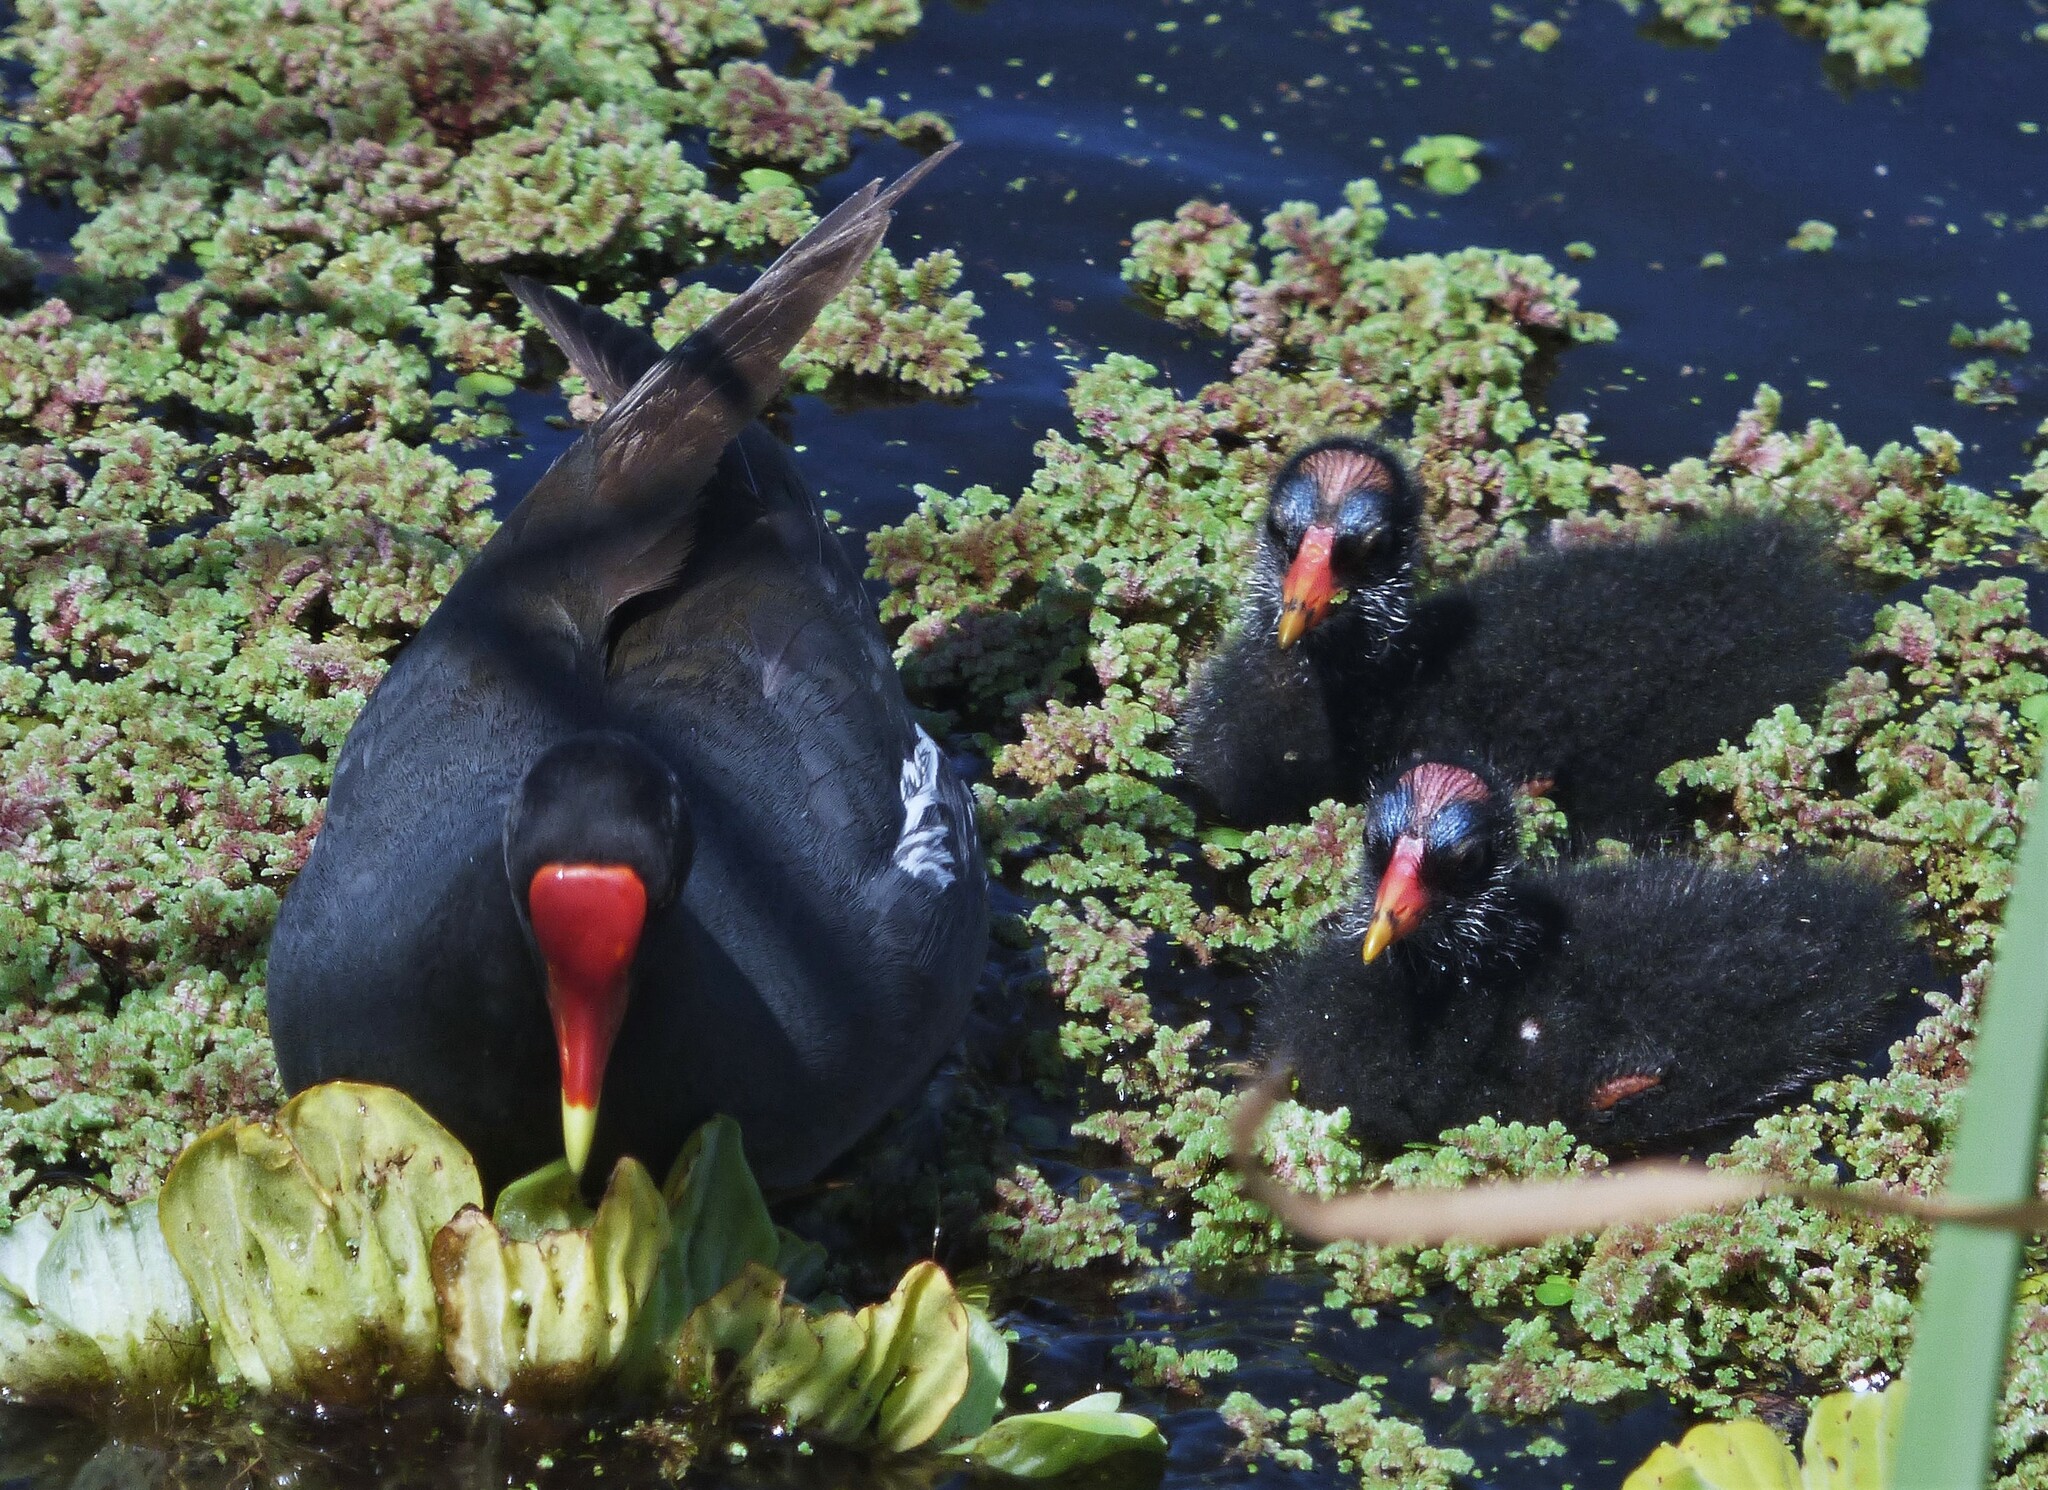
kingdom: Animalia
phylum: Chordata
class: Aves
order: Gruiformes
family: Rallidae
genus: Gallinula
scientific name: Gallinula chloropus
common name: Common moorhen
